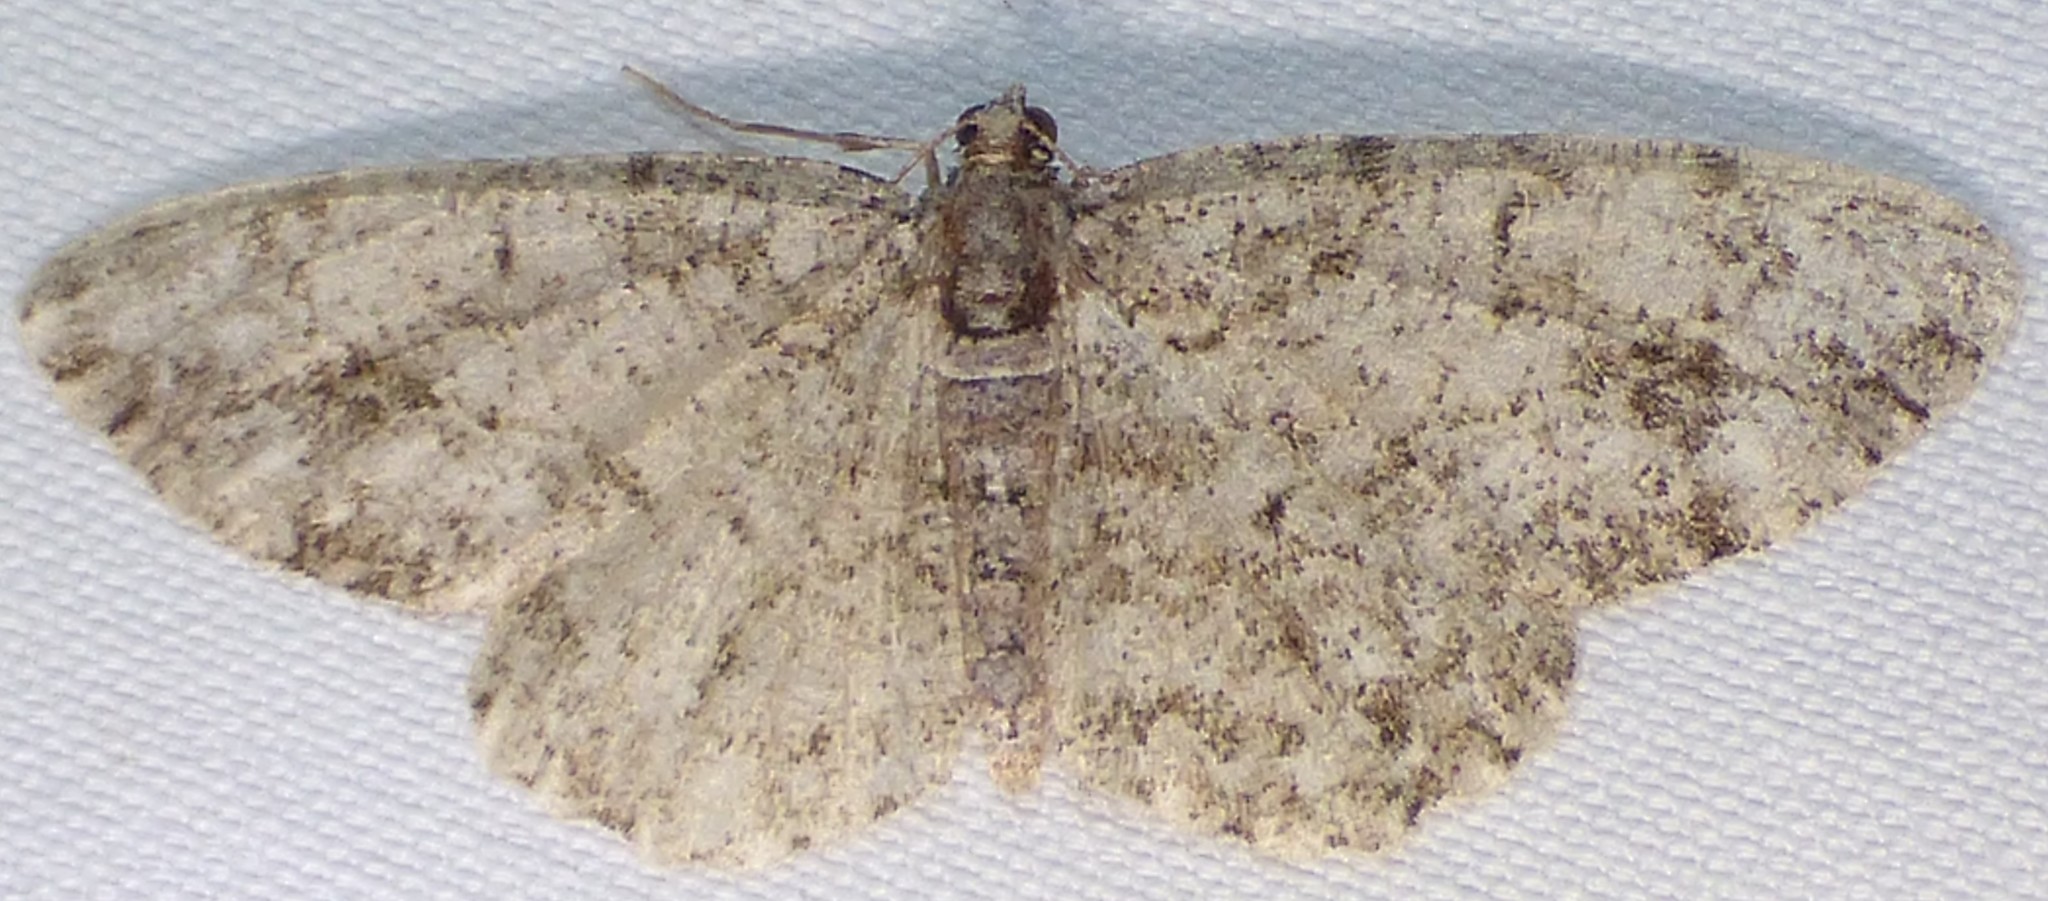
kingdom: Animalia
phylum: Arthropoda
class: Insecta
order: Lepidoptera
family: Geometridae
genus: Protoboarmia
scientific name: Protoboarmia porcelaria
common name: Porcelain gray
